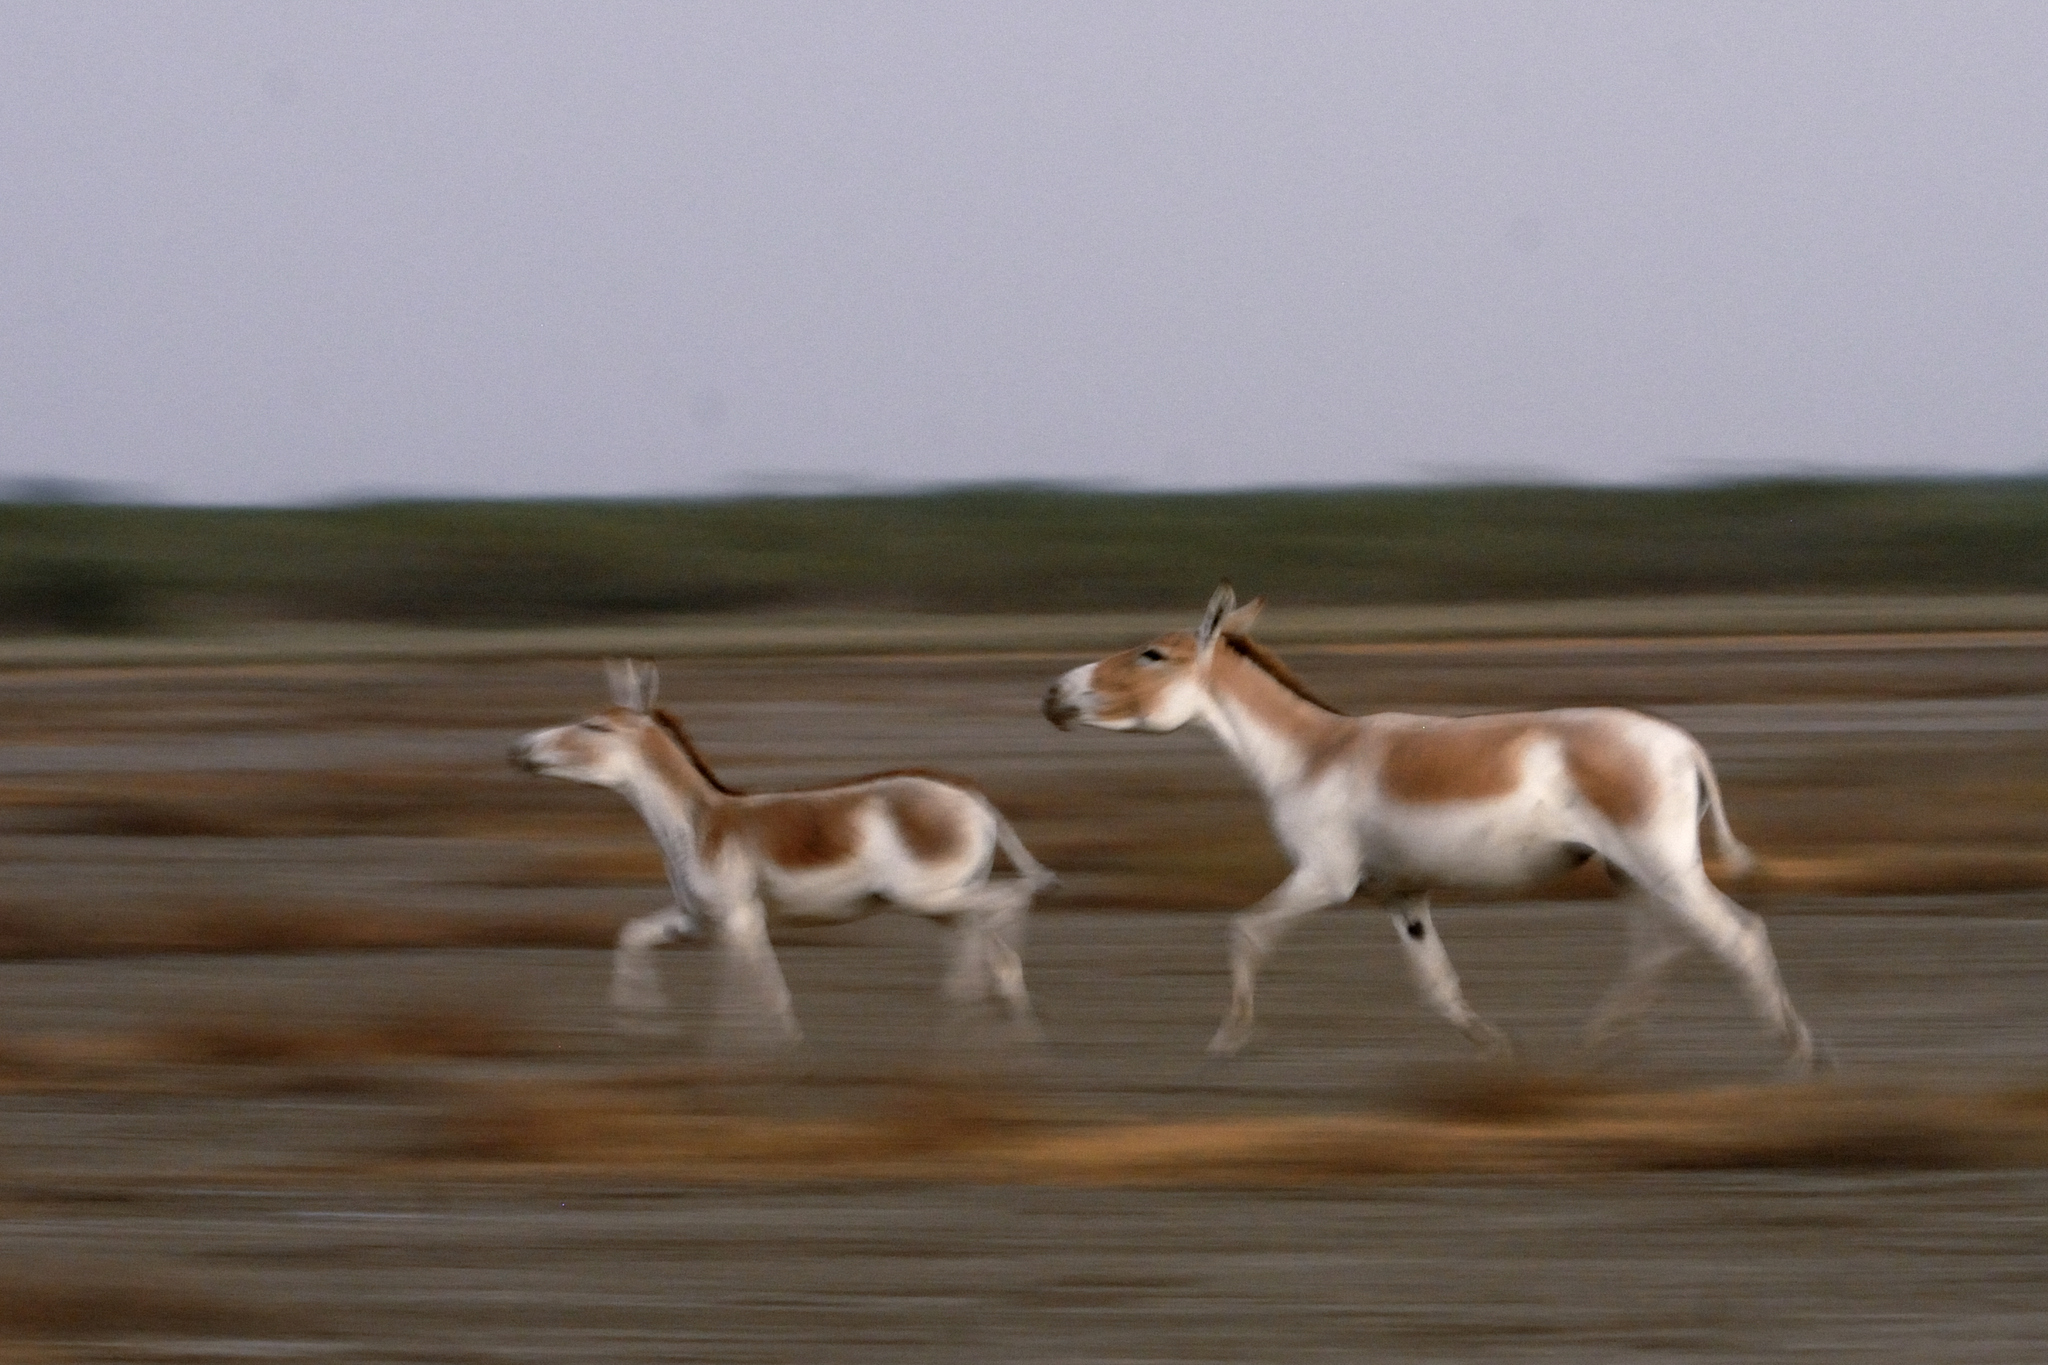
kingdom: Animalia
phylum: Chordata
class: Mammalia
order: Perissodactyla
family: Equidae
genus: Equus
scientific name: Equus khur
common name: Indian wild ass
